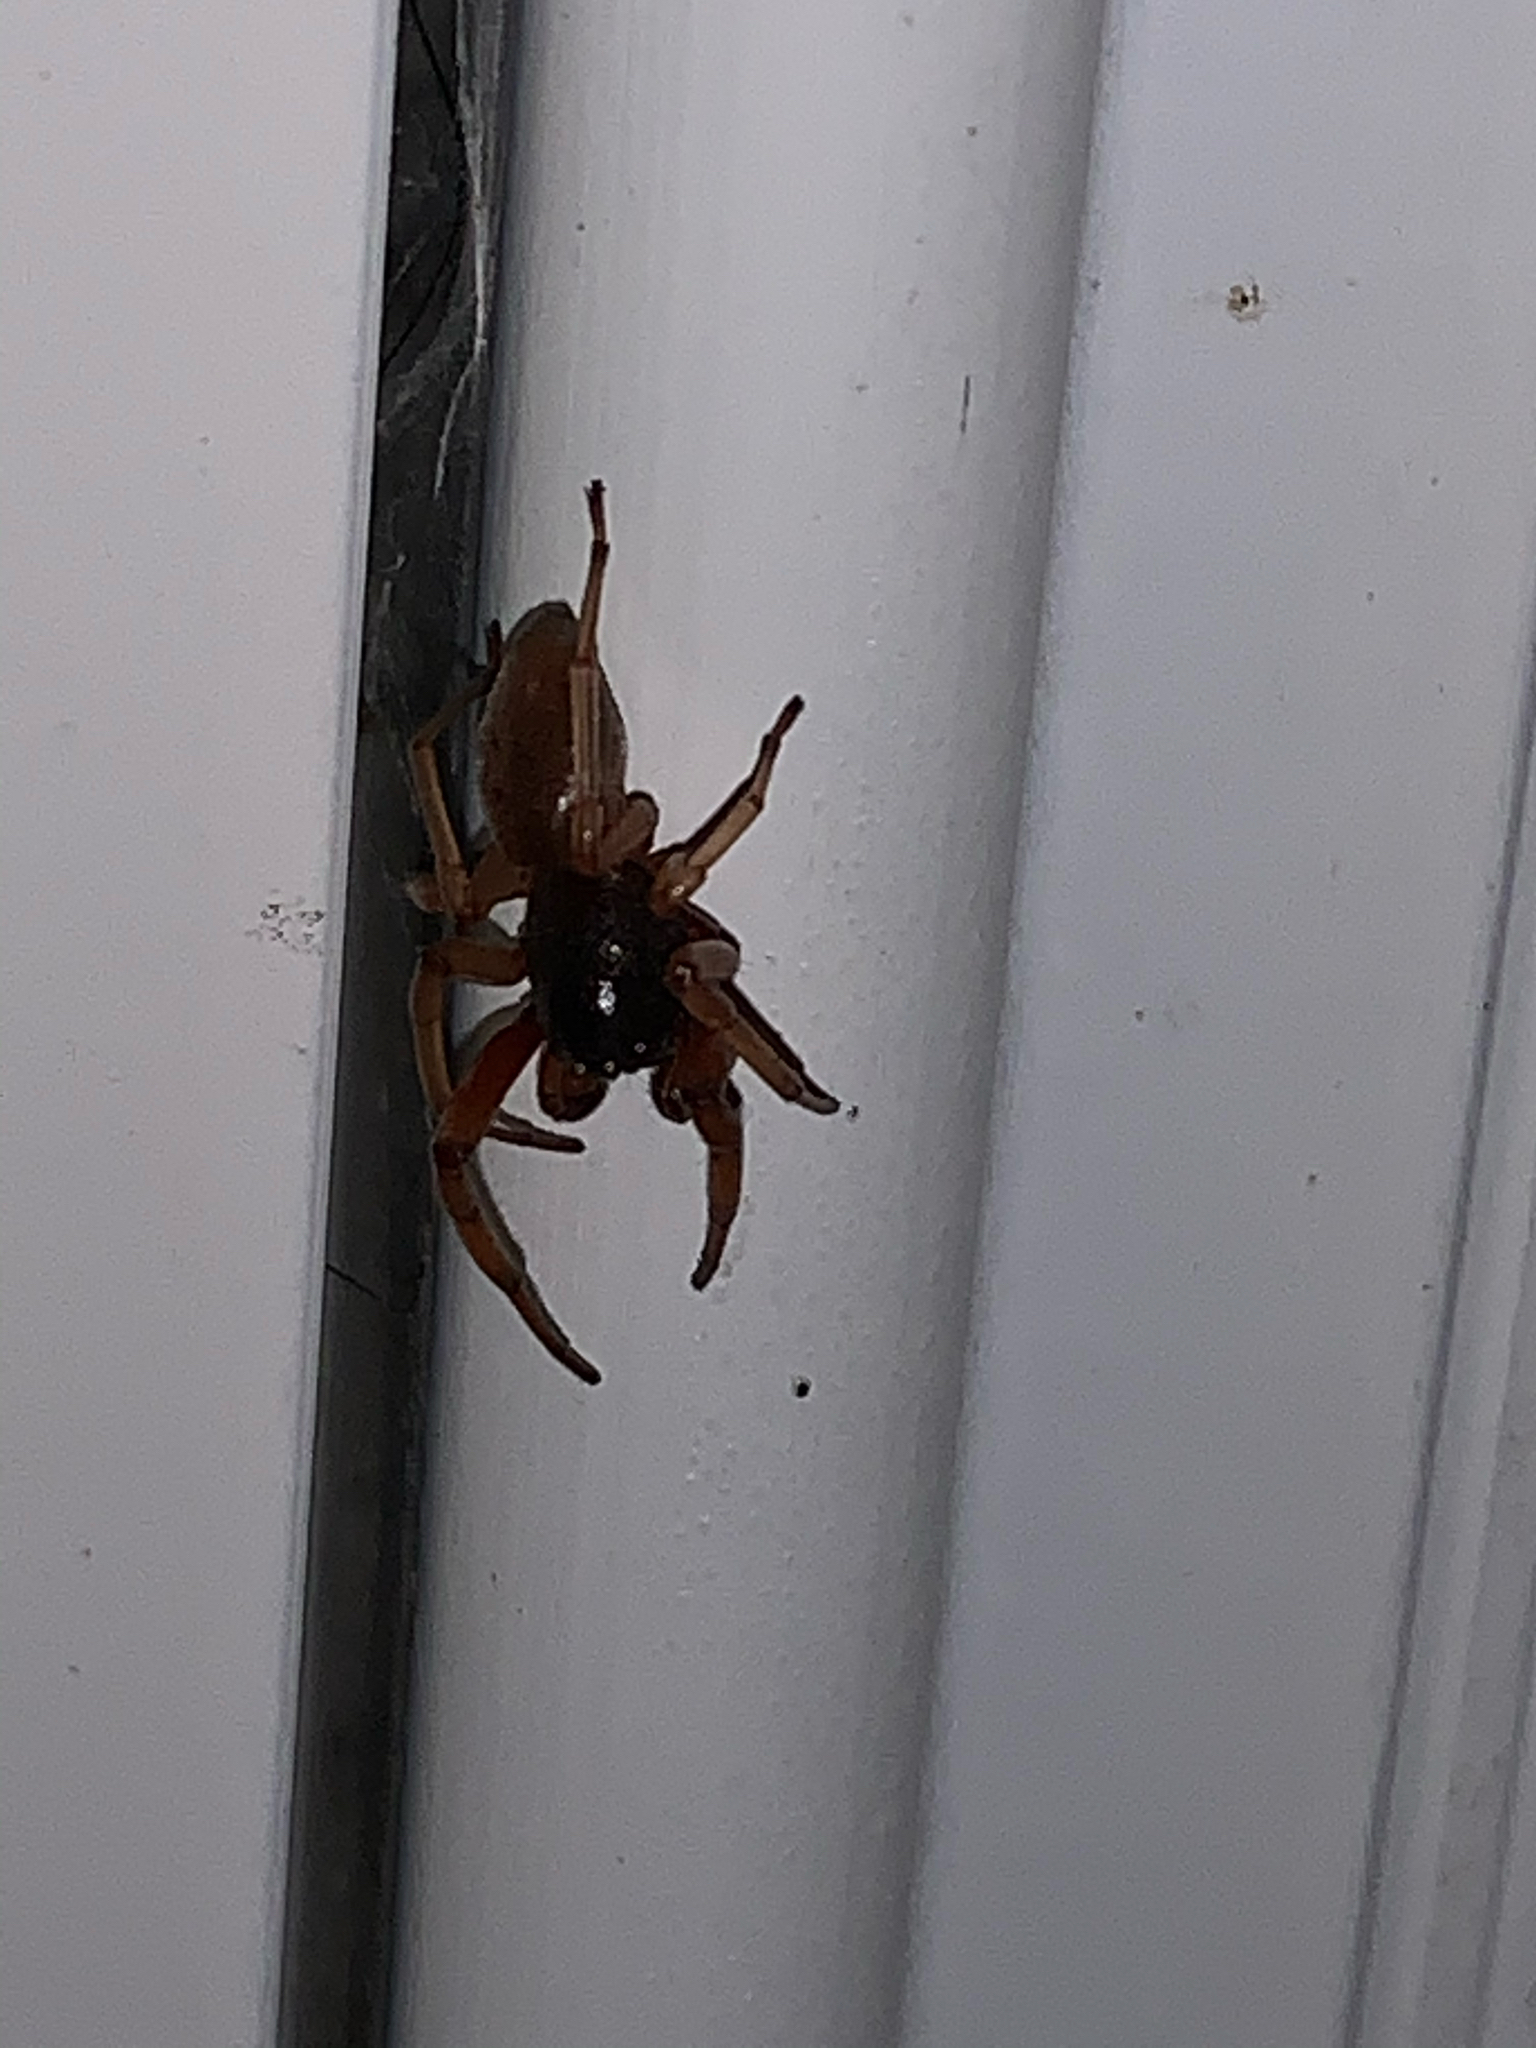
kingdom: Animalia
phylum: Arthropoda
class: Arachnida
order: Araneae
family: Trachelidae
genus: Trachelas
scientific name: Trachelas tranquillus
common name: Broad-faced sac spider
